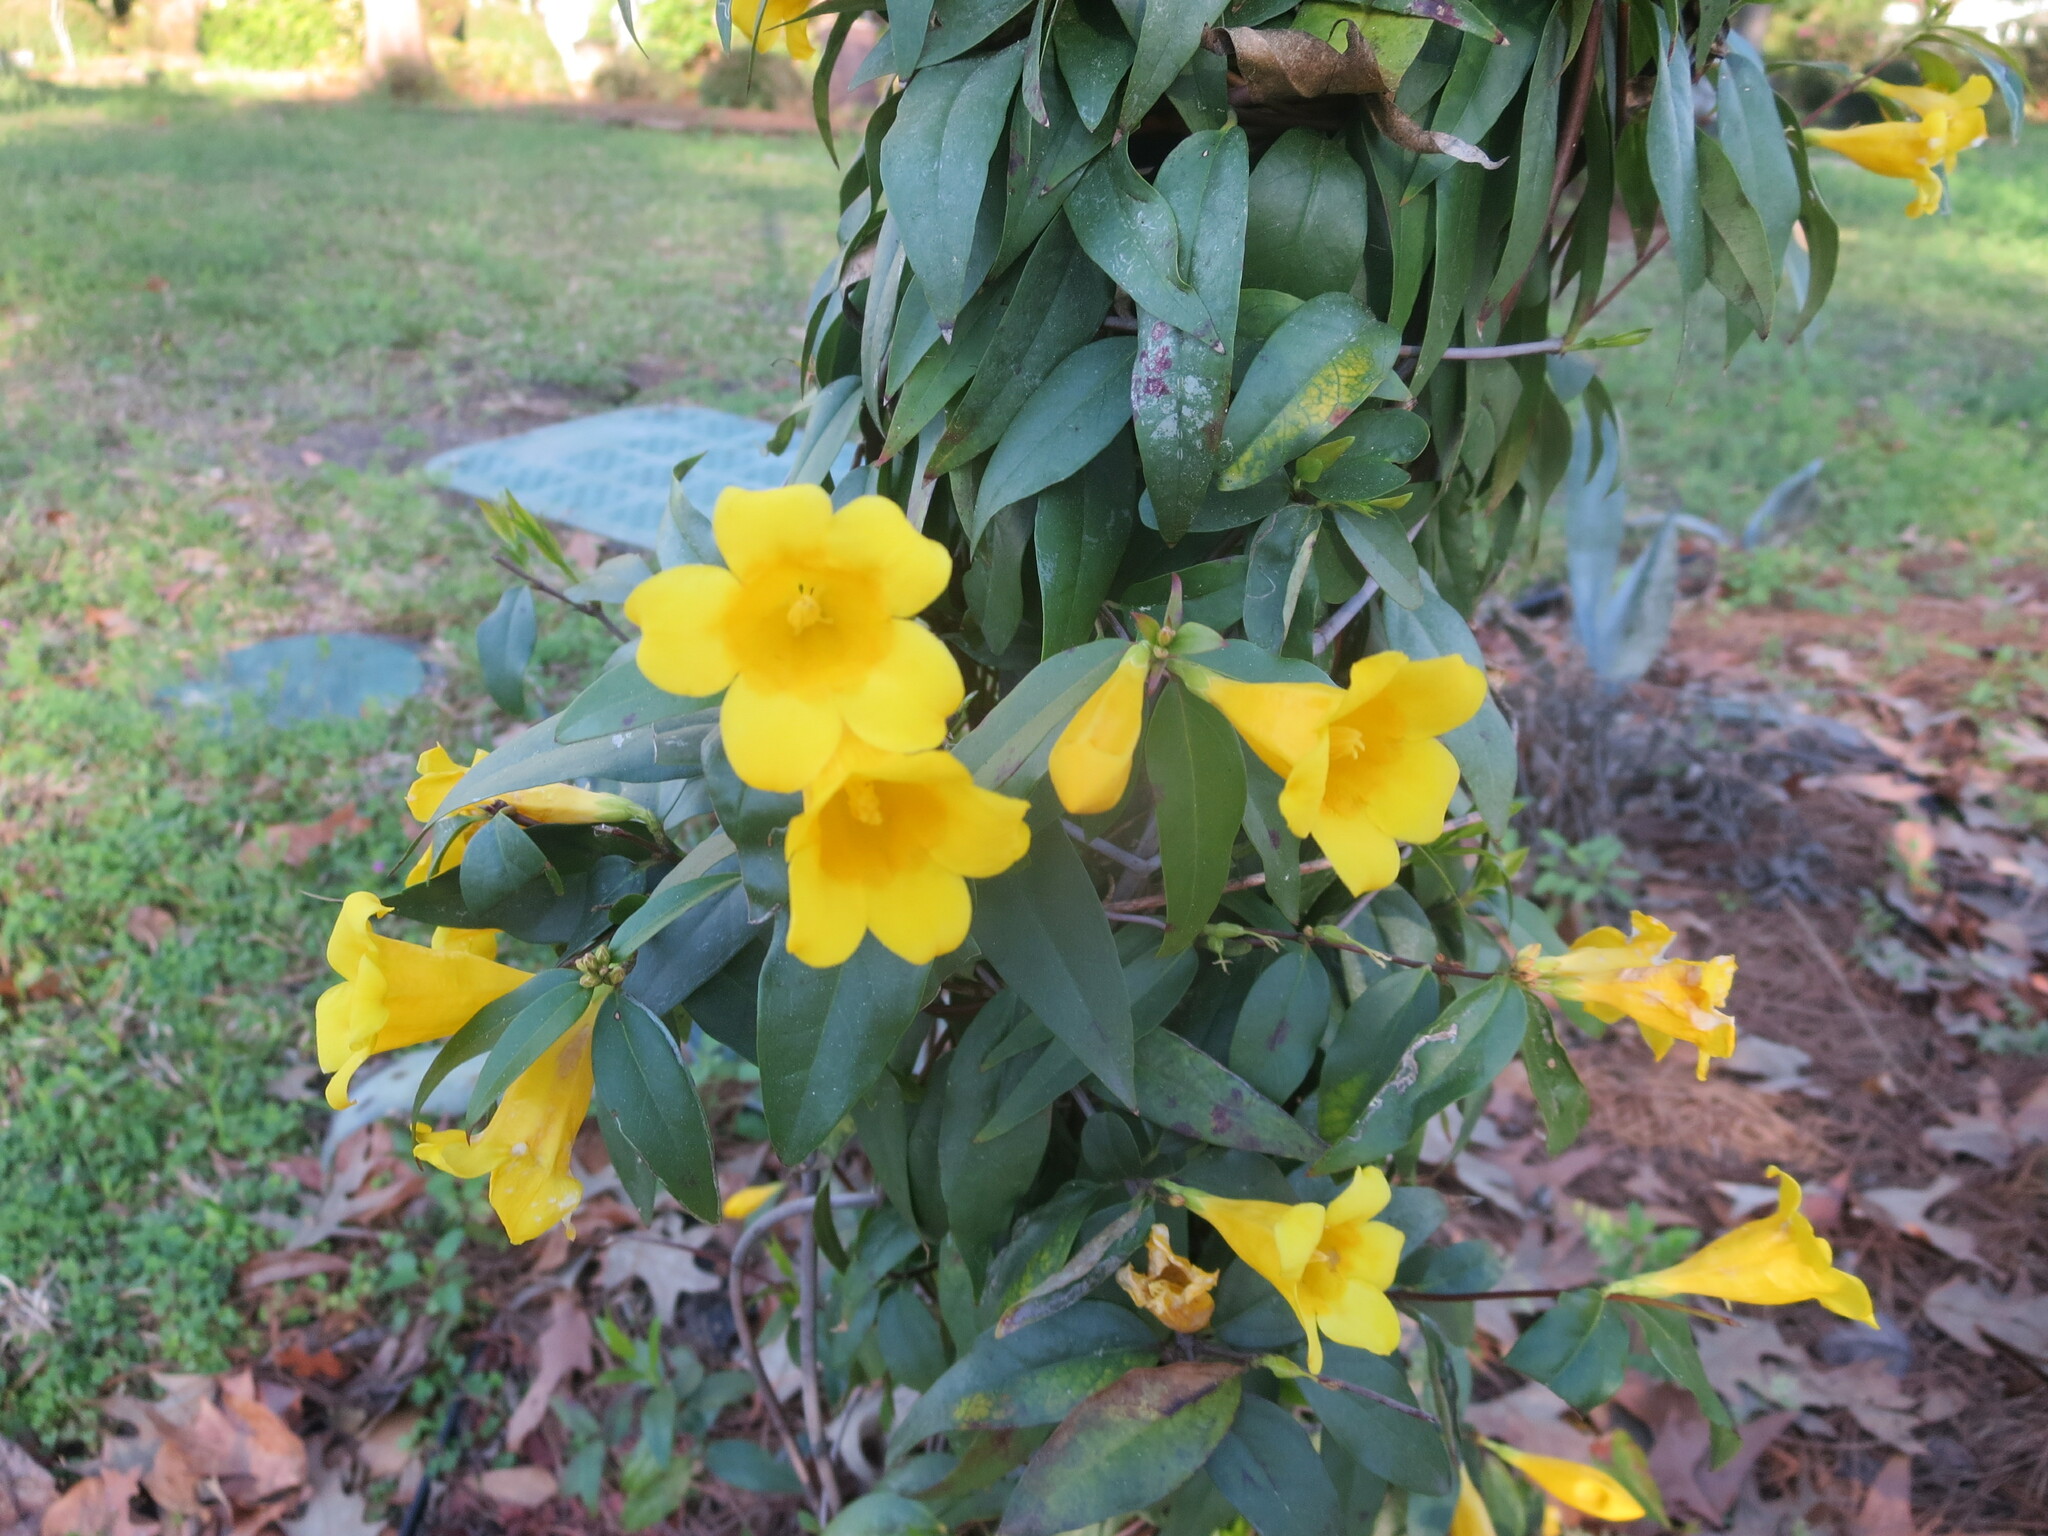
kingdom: Plantae
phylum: Tracheophyta
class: Magnoliopsida
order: Gentianales
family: Gelsemiaceae
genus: Gelsemium
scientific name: Gelsemium sempervirens
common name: Carolina-jasmine
